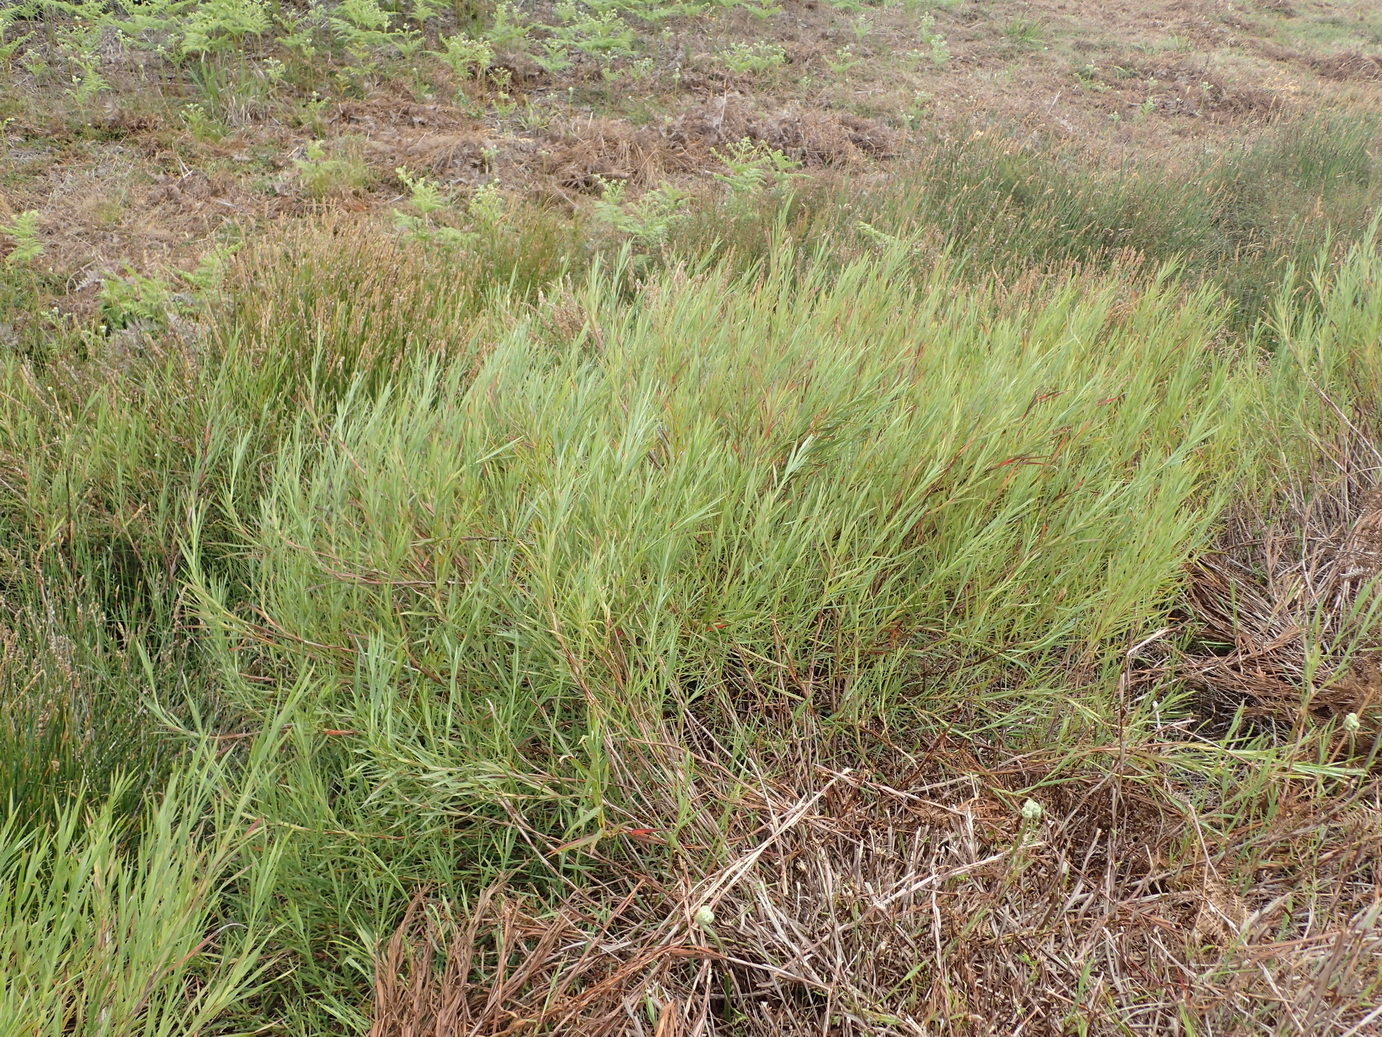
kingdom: Plantae
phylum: Tracheophyta
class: Magnoliopsida
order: Rosales
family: Rosaceae
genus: Cliffortia
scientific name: Cliffortia graminea
